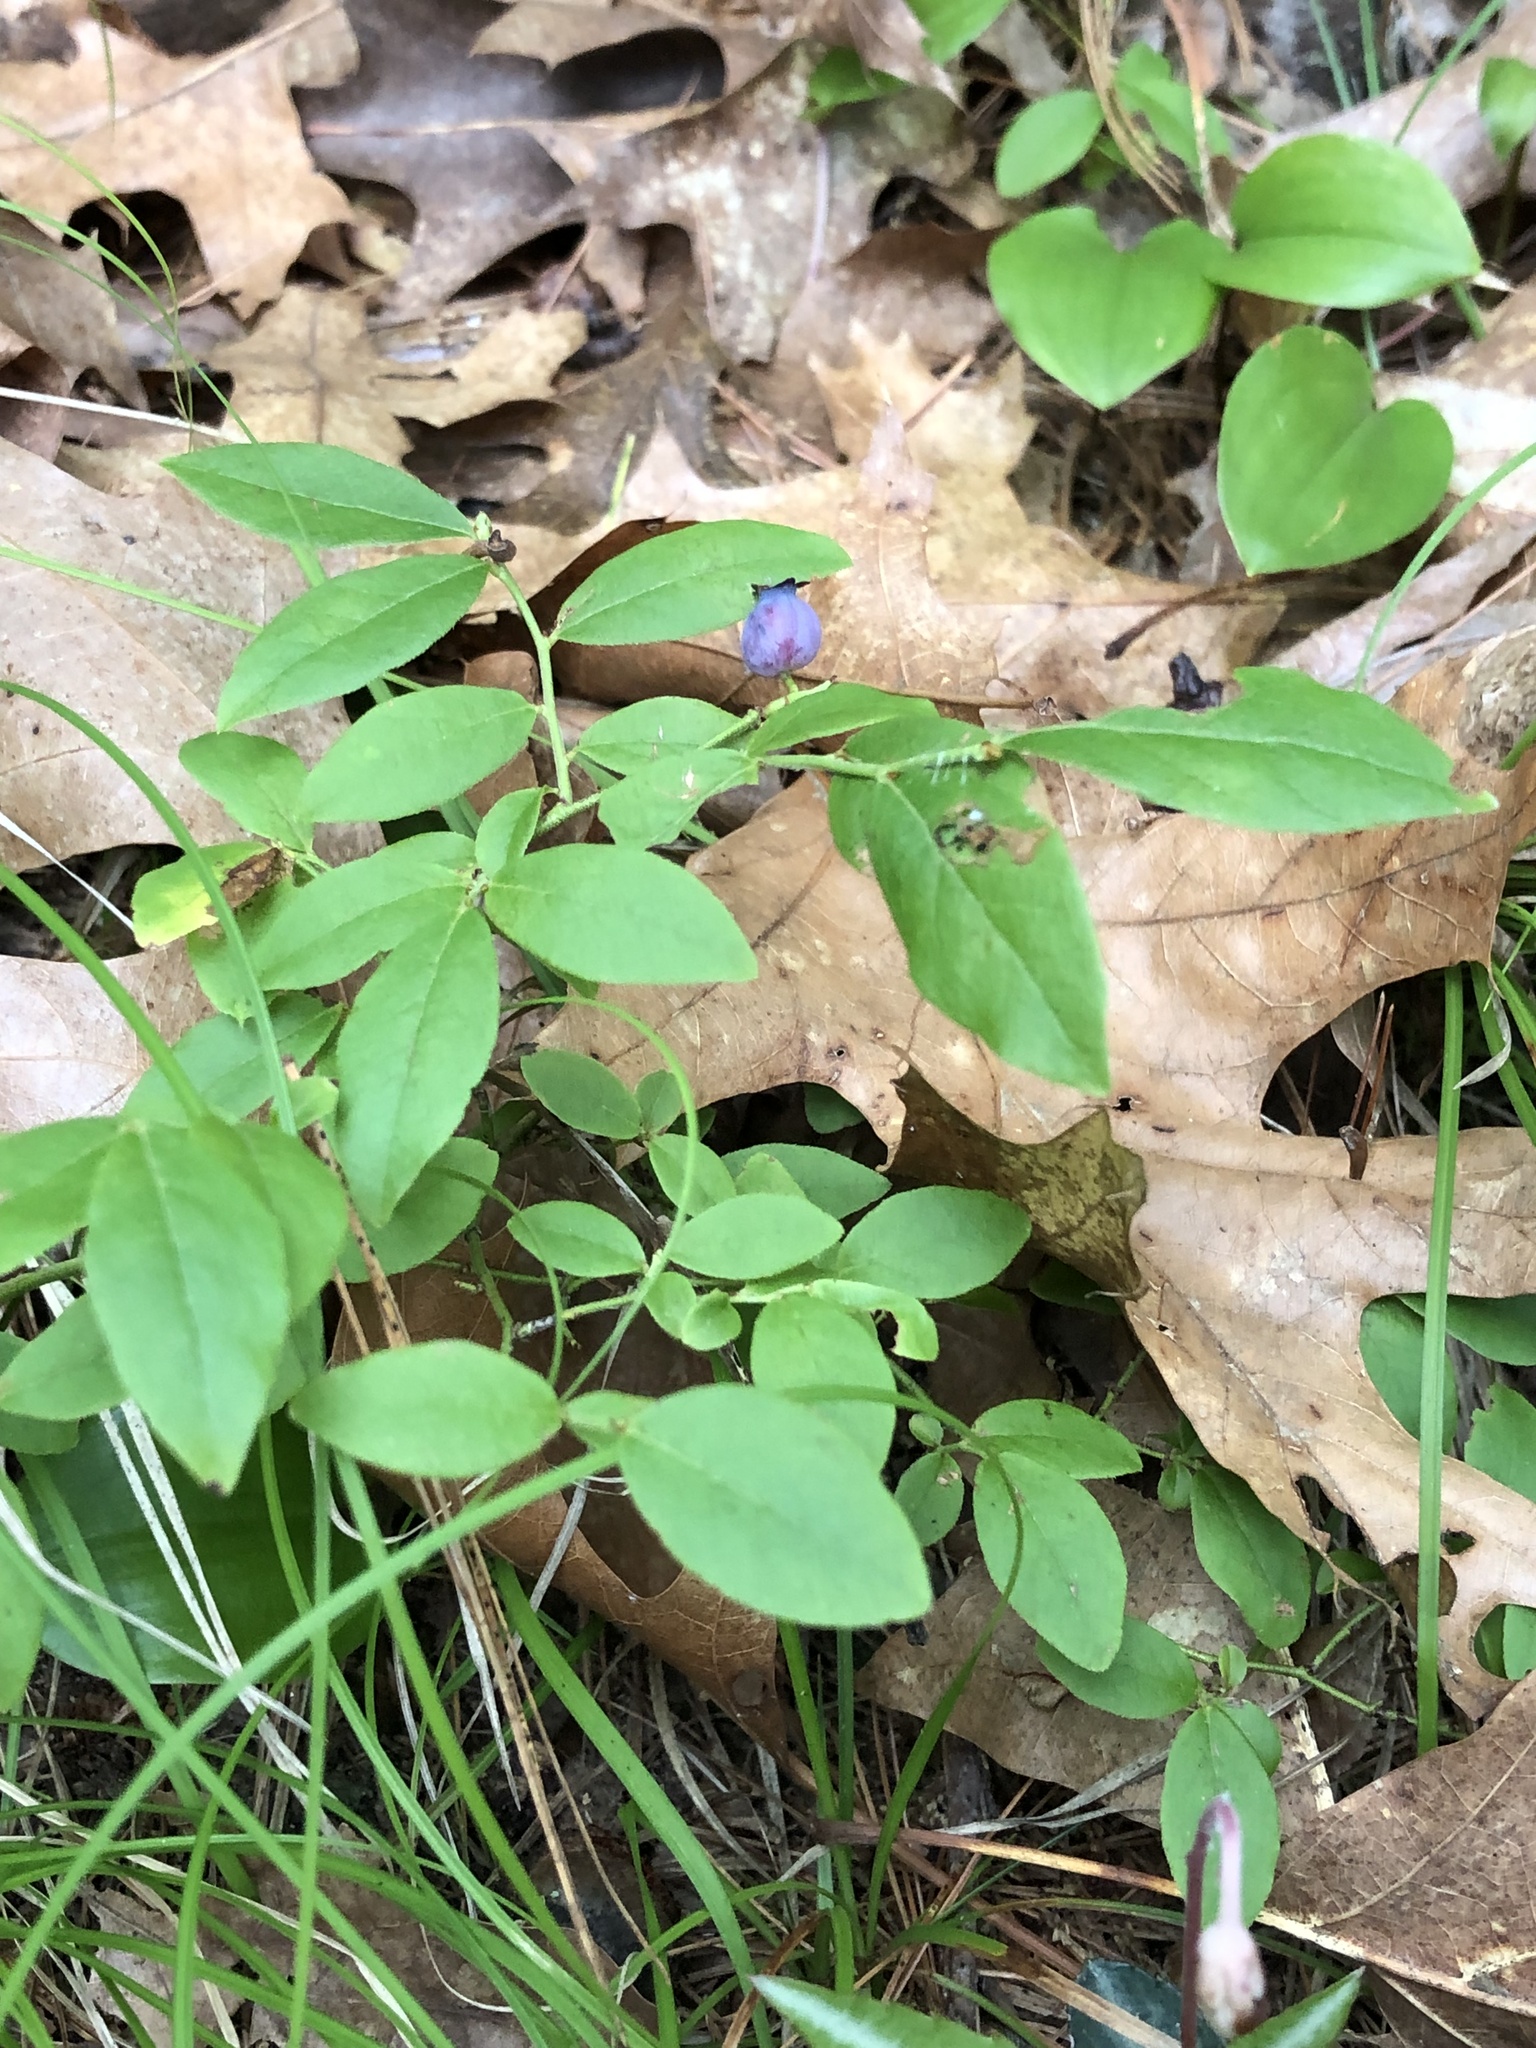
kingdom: Plantae
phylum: Tracheophyta
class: Magnoliopsida
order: Ericales
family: Ericaceae
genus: Vaccinium
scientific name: Vaccinium pallidum
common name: Blue ridge blueberry
